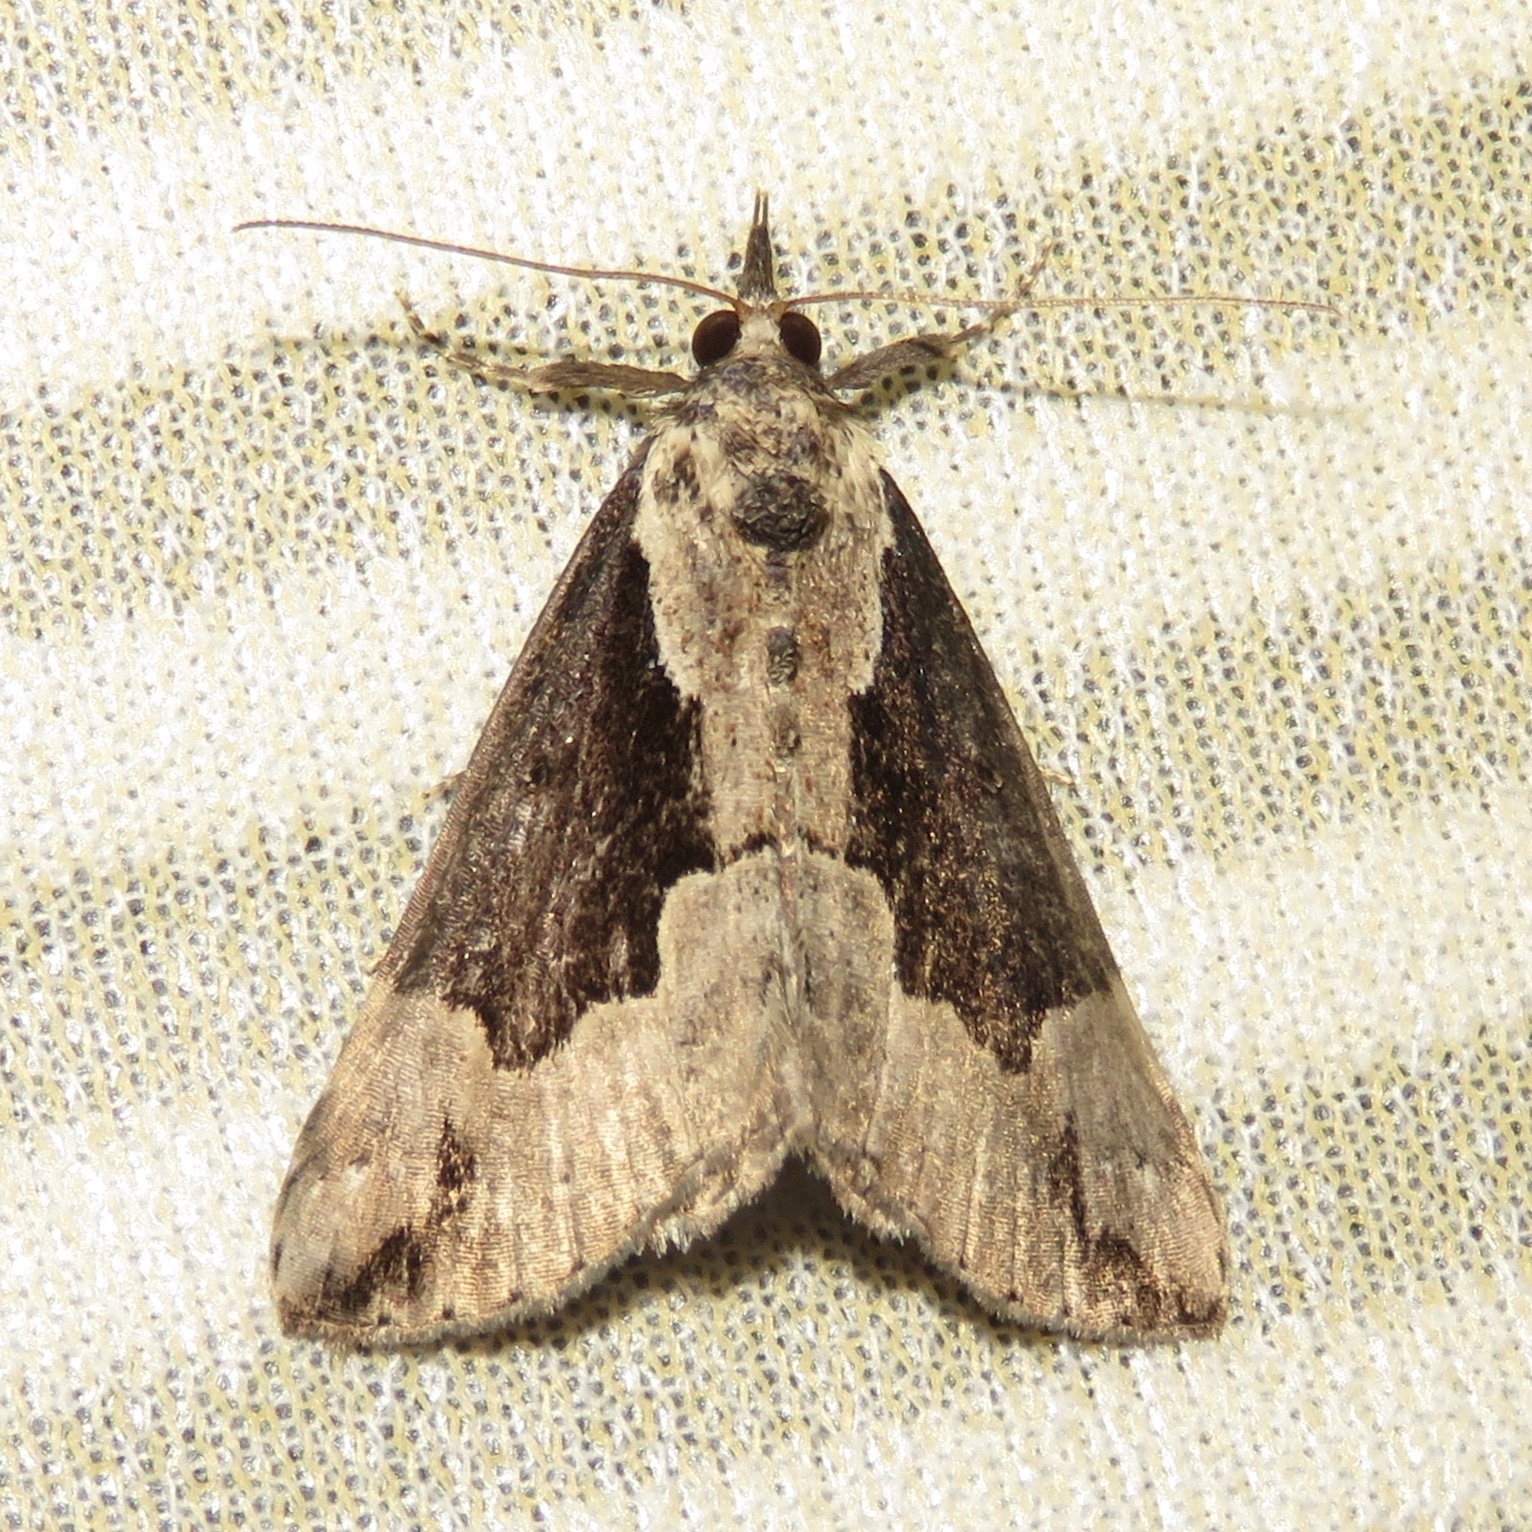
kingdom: Animalia
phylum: Arthropoda
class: Insecta
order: Lepidoptera
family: Erebidae
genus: Hypena
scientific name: Hypena baltimoralis
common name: Baltimore snout
